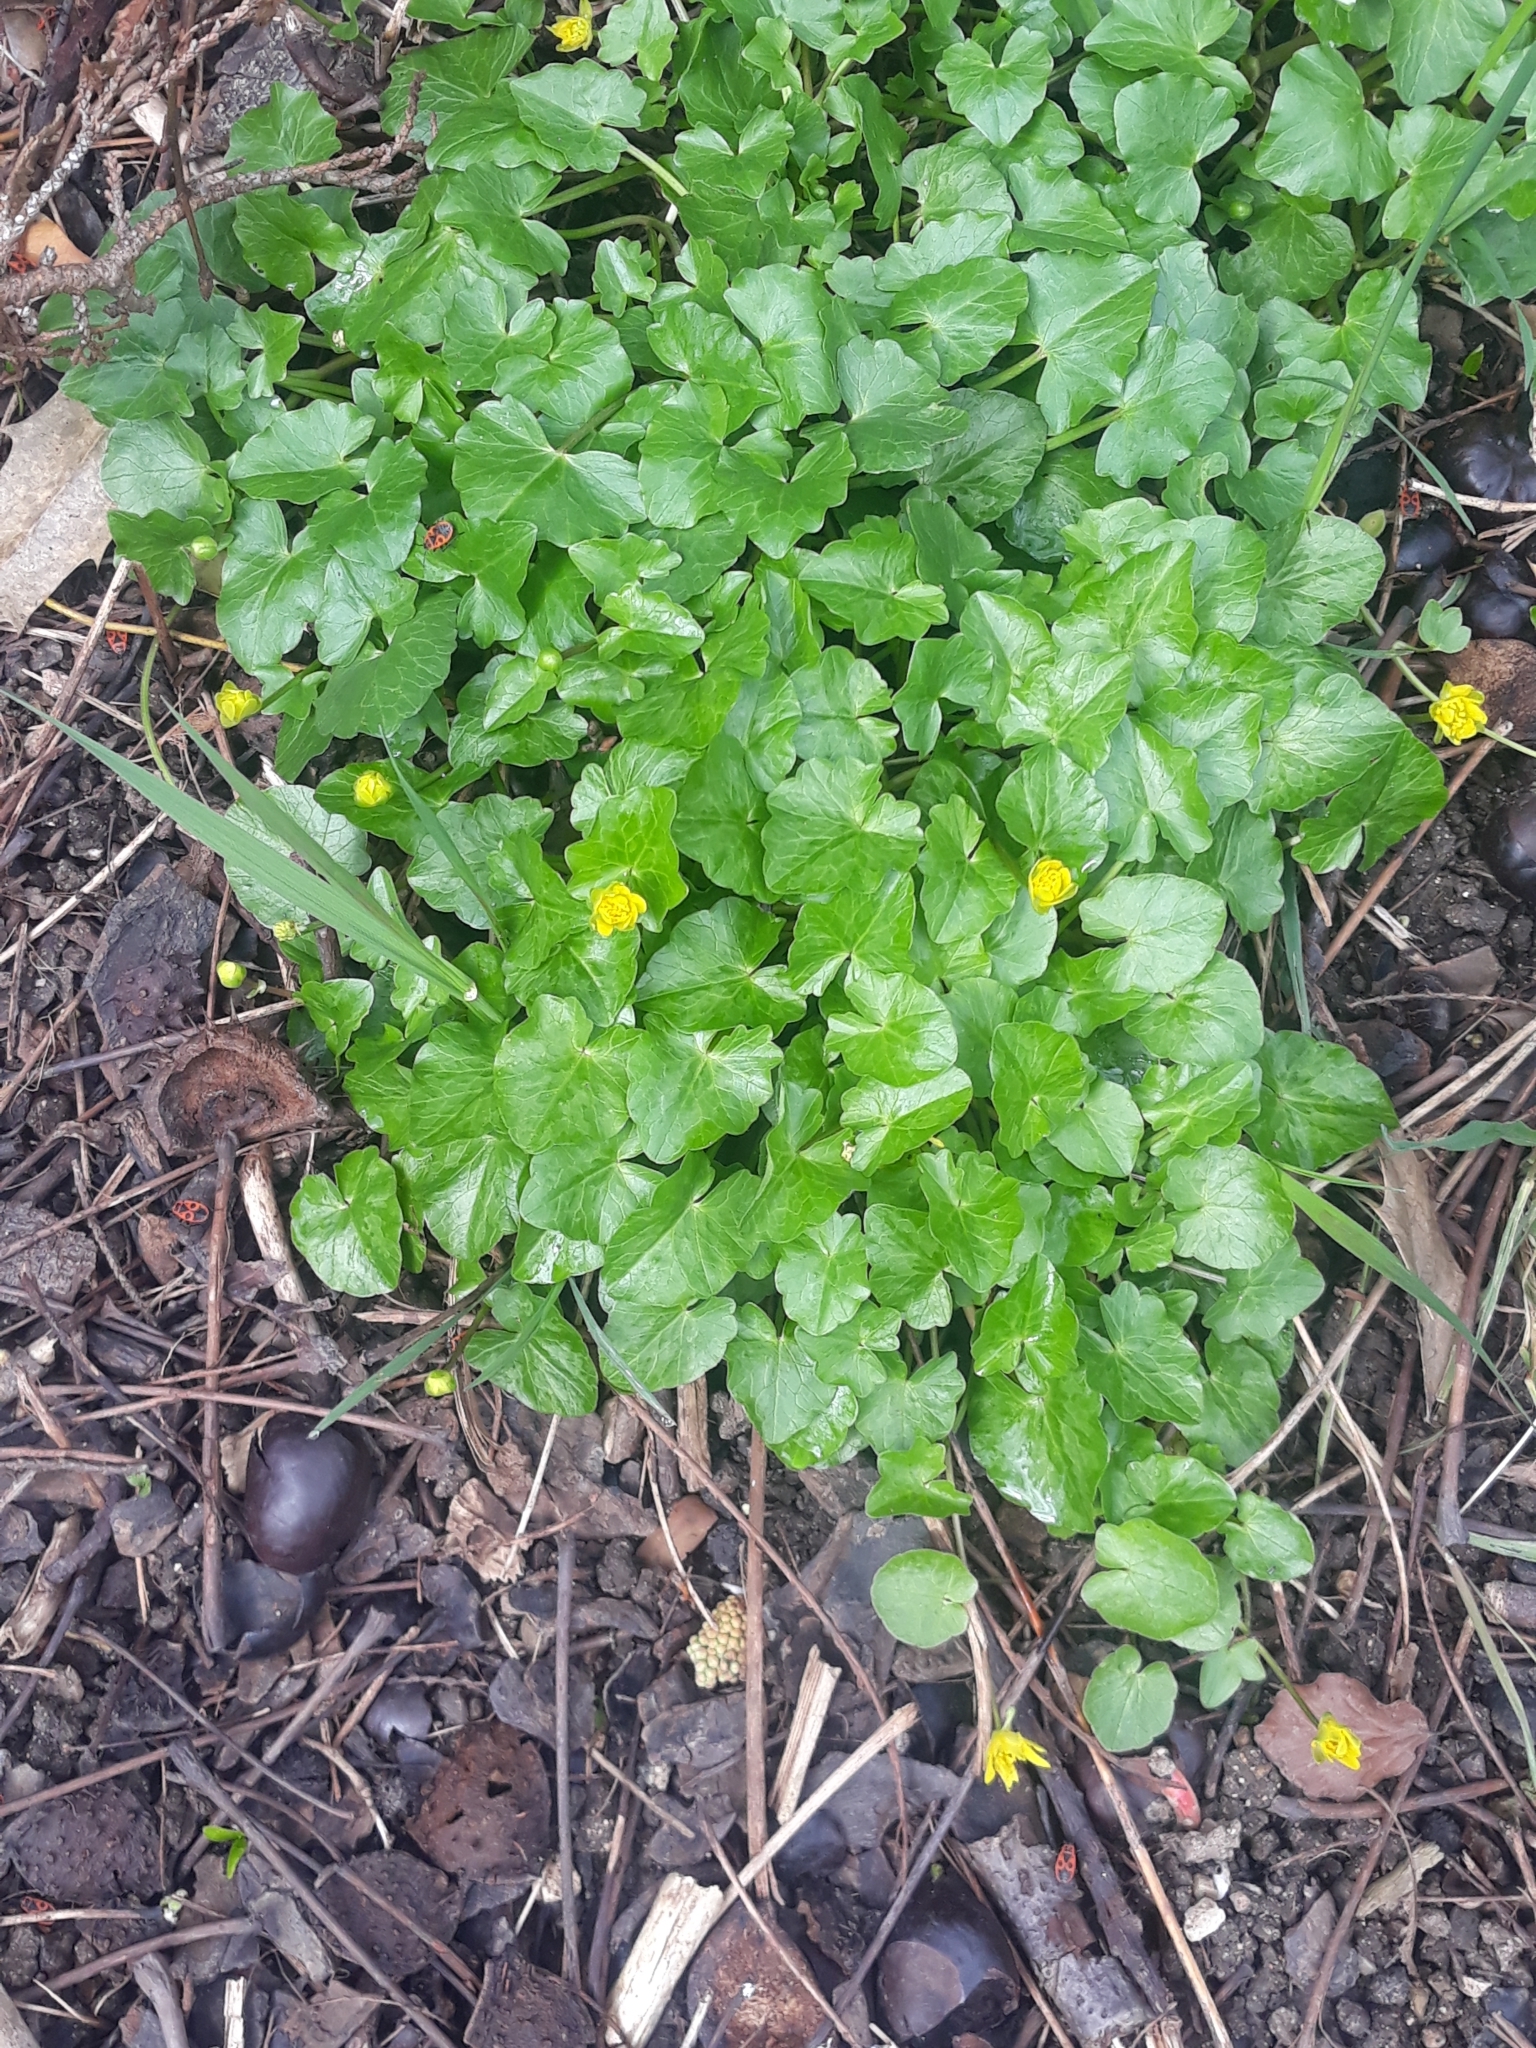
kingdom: Plantae
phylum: Tracheophyta
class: Magnoliopsida
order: Ranunculales
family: Ranunculaceae
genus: Ficaria
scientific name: Ficaria verna
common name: Lesser celandine
